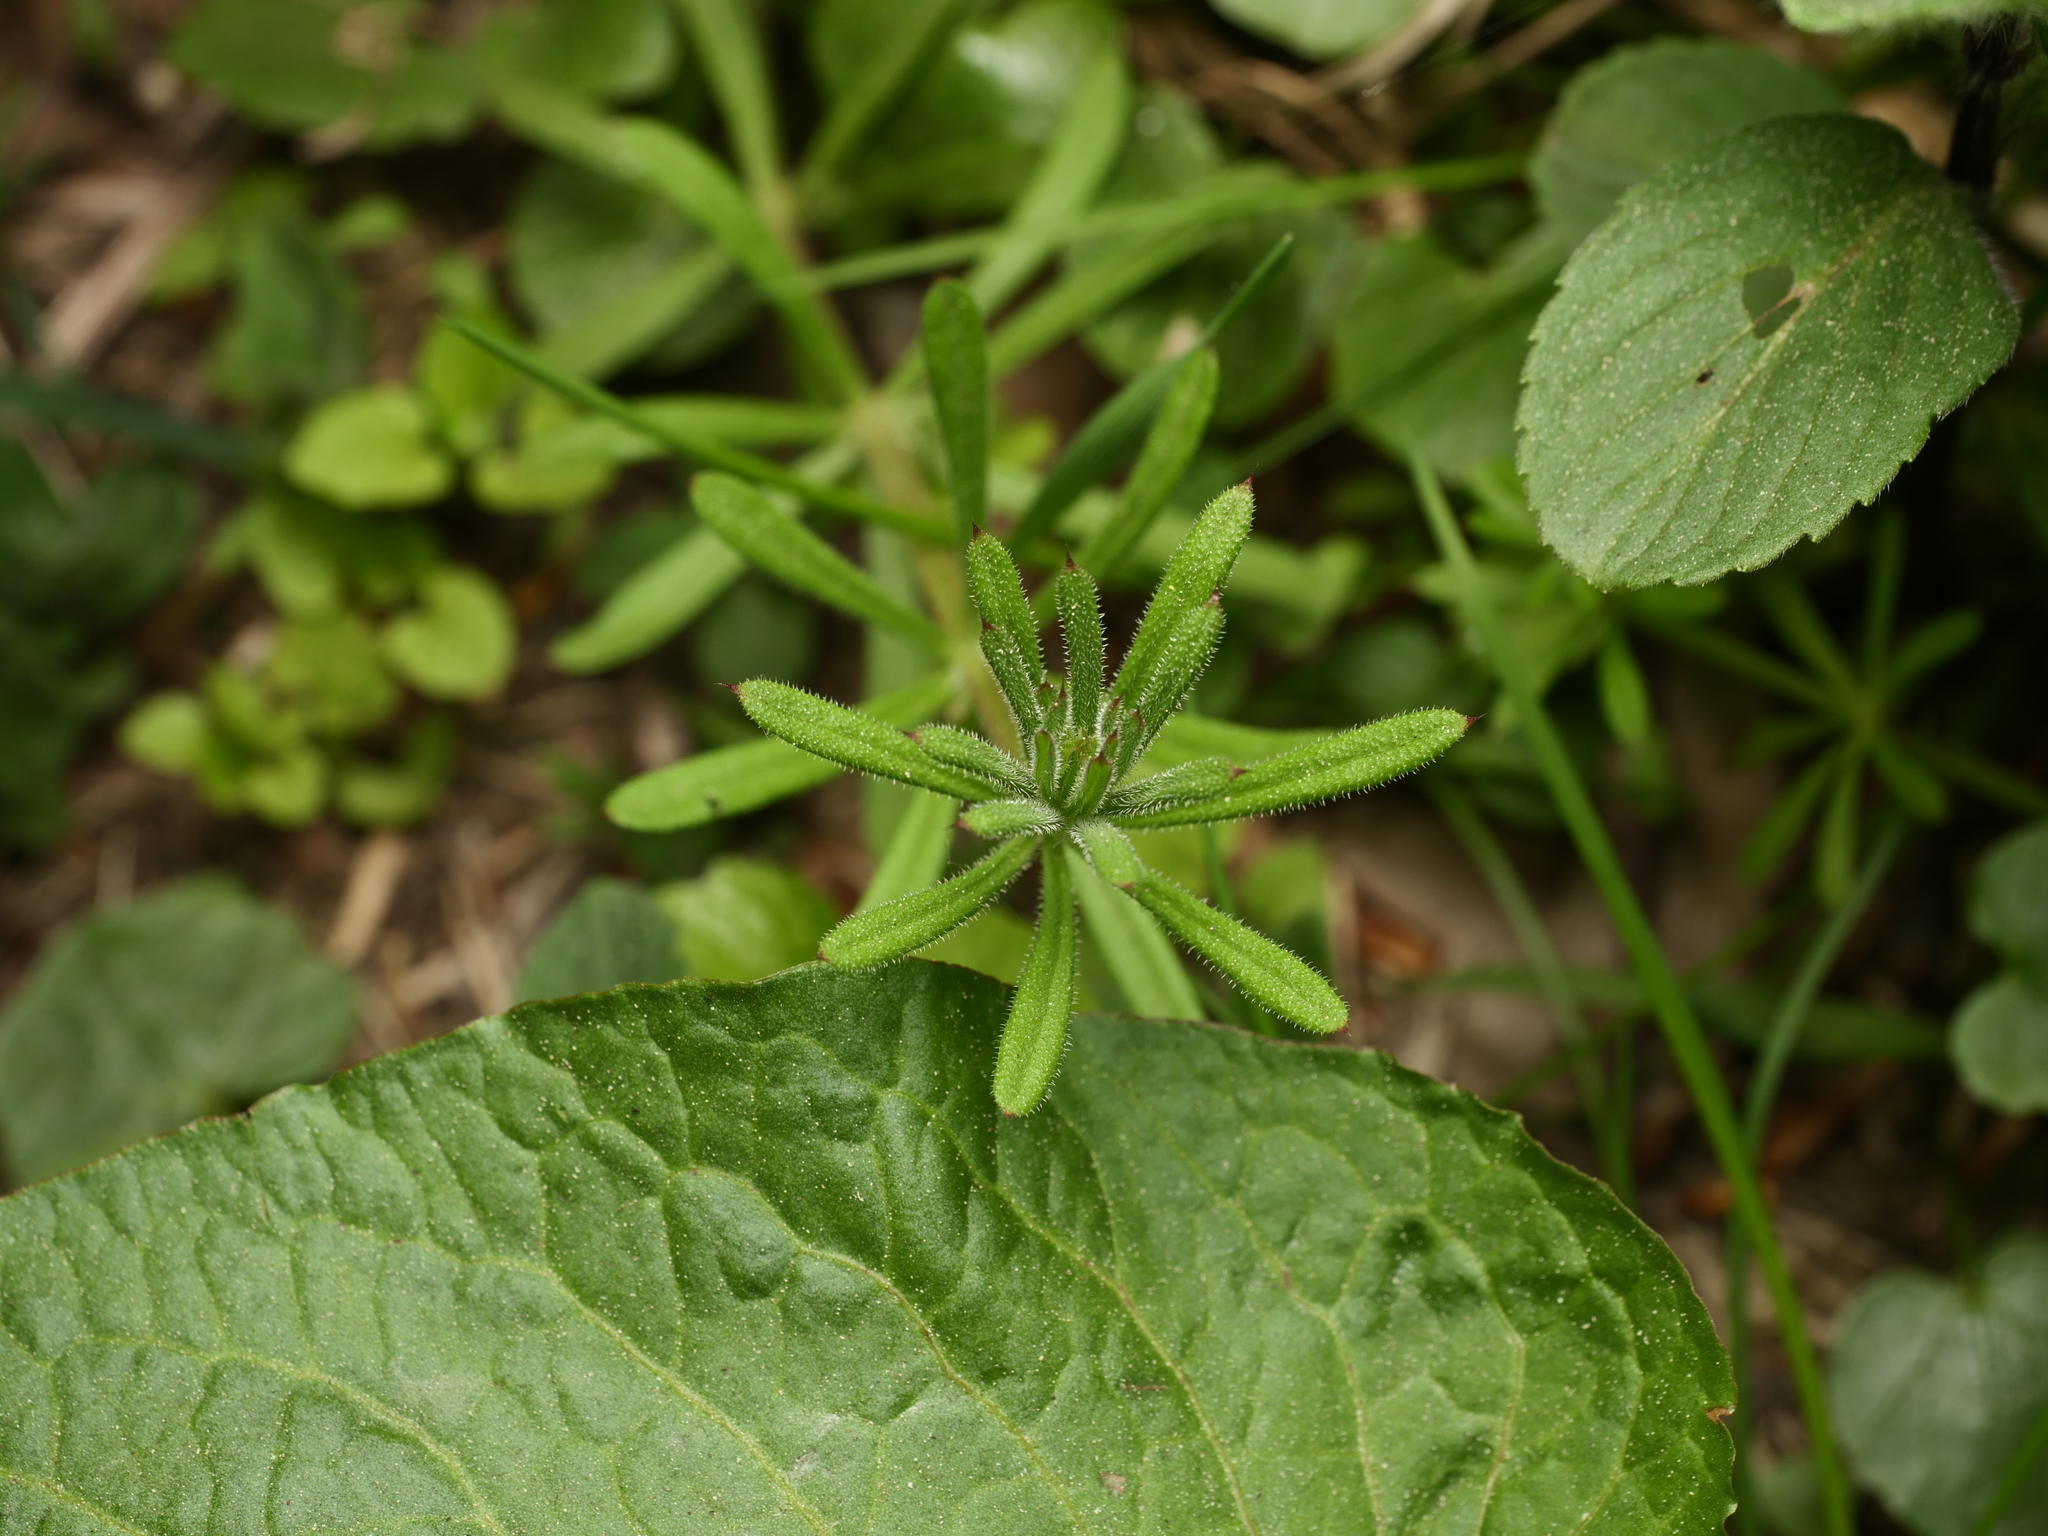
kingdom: Plantae
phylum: Tracheophyta
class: Magnoliopsida
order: Gentianales
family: Rubiaceae
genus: Galium
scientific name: Galium aparine
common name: Cleavers
